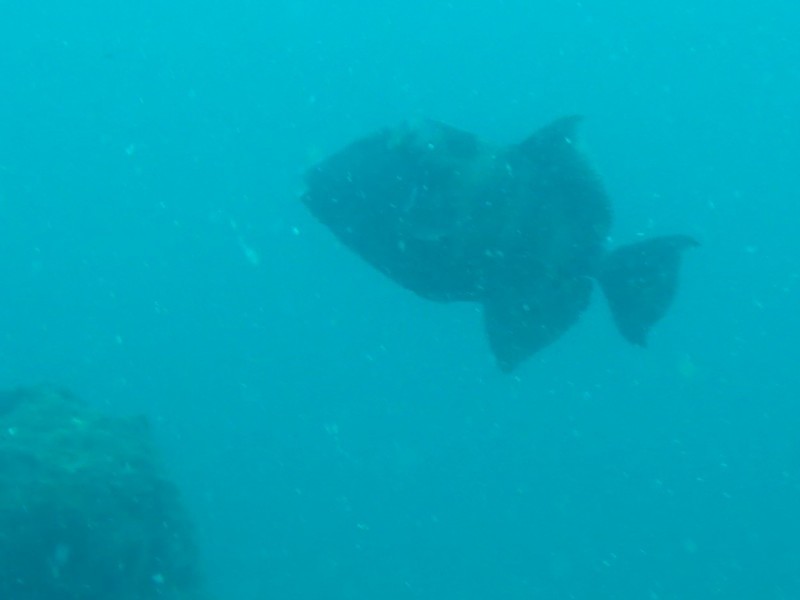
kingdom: Animalia
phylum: Chordata
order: Tetraodontiformes
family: Balistidae
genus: Pseudobalistes
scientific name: Pseudobalistes naufragium
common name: Blunthead triggerfish
